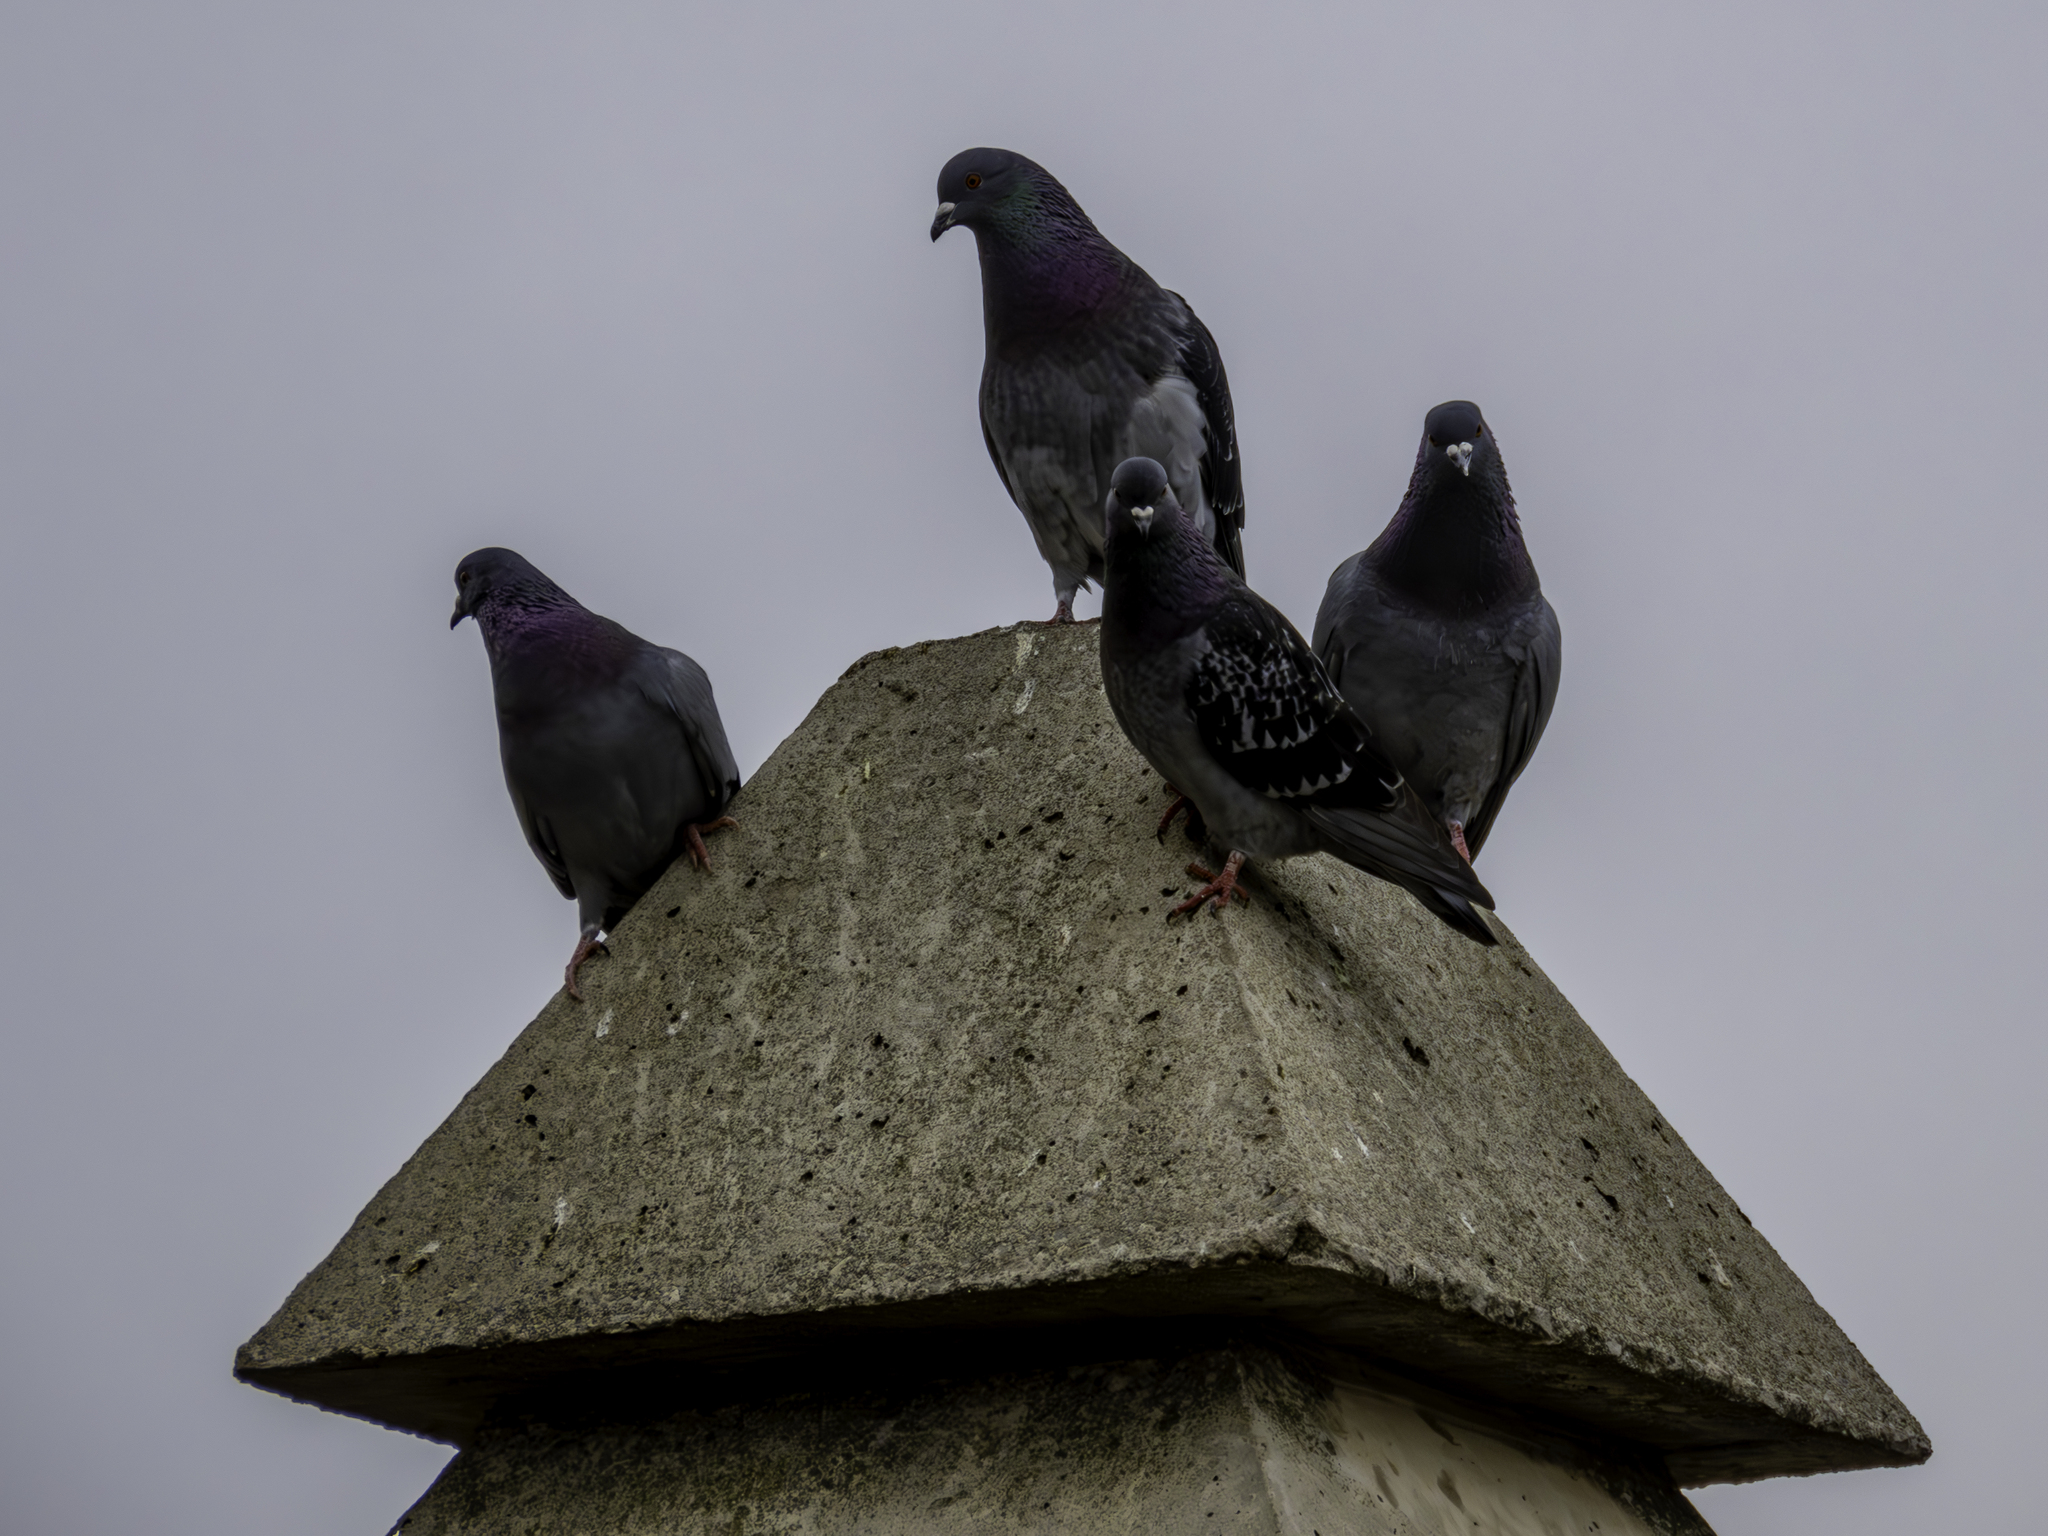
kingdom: Animalia
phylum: Chordata
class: Aves
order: Columbiformes
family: Columbidae
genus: Columba
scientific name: Columba livia
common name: Rock pigeon
